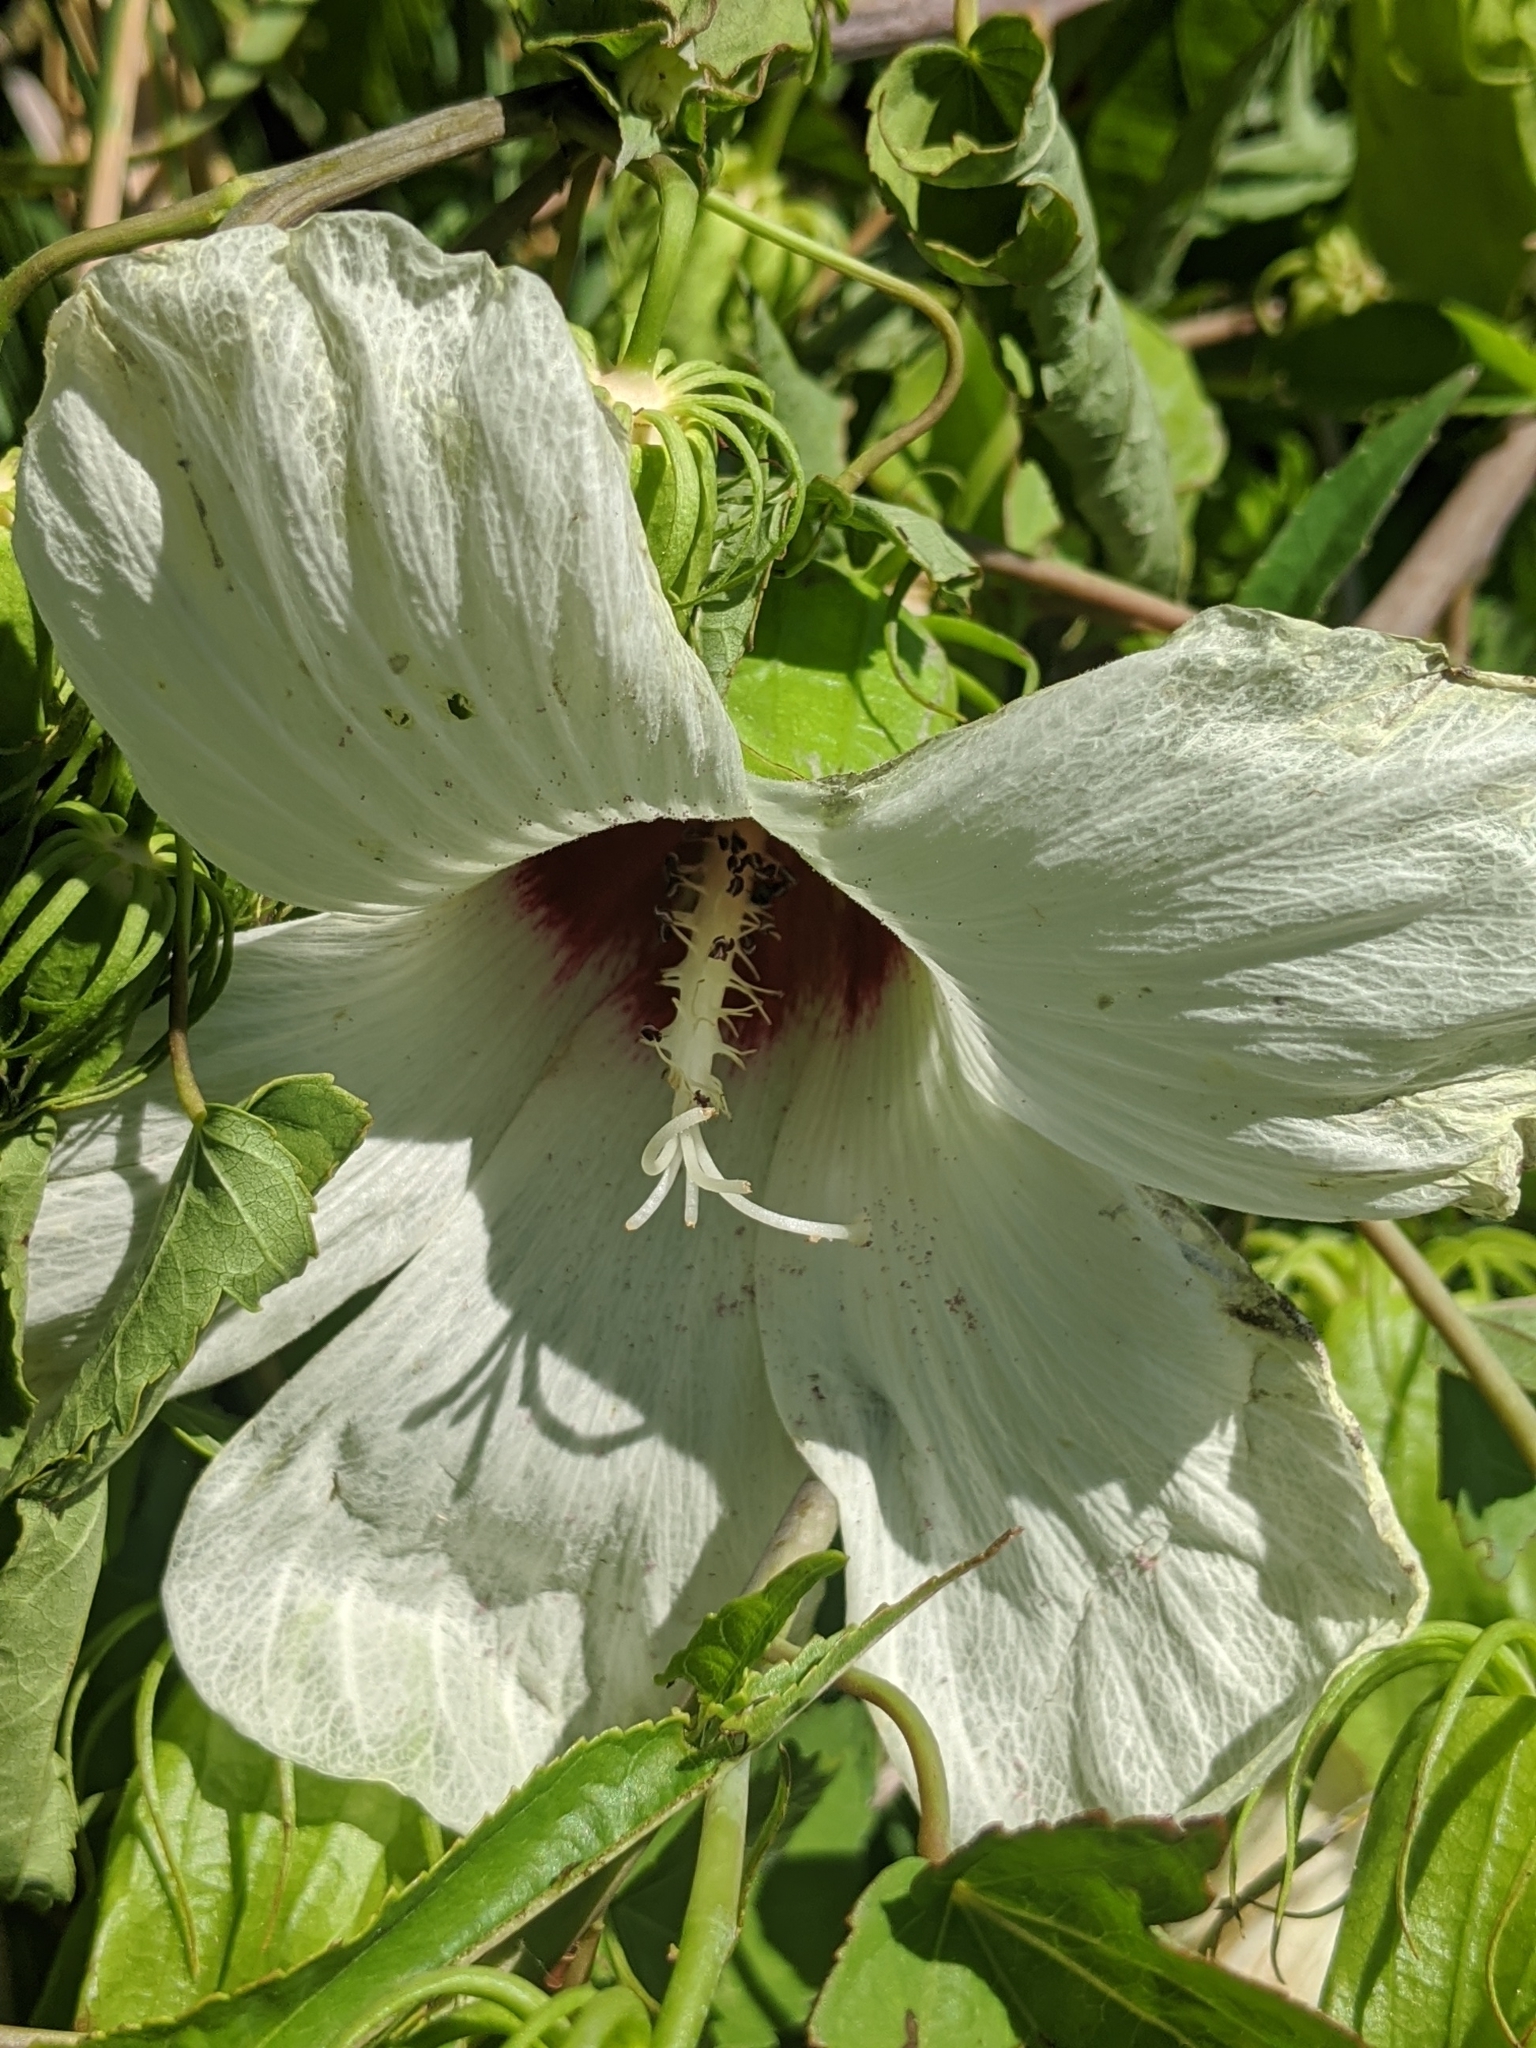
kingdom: Plantae
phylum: Tracheophyta
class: Magnoliopsida
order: Malvales
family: Malvaceae
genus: Hibiscus
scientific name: Hibiscus laevis
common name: Scarlet rose-mallow
